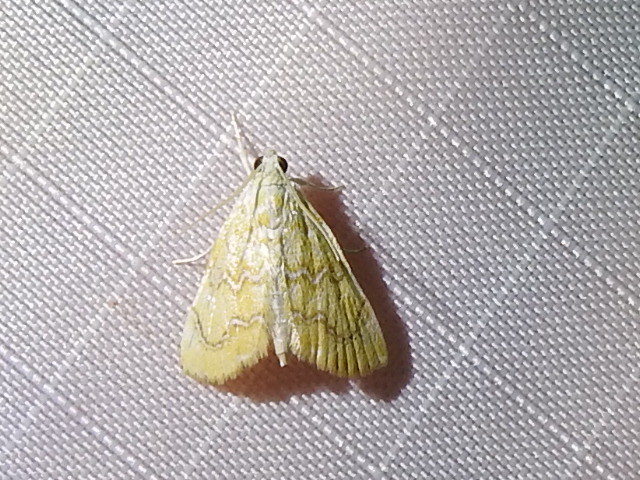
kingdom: Animalia
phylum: Arthropoda
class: Insecta
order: Lepidoptera
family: Crambidae
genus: Glaphyria
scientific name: Glaphyria sesquistrialis
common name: White-roped glaphyria
